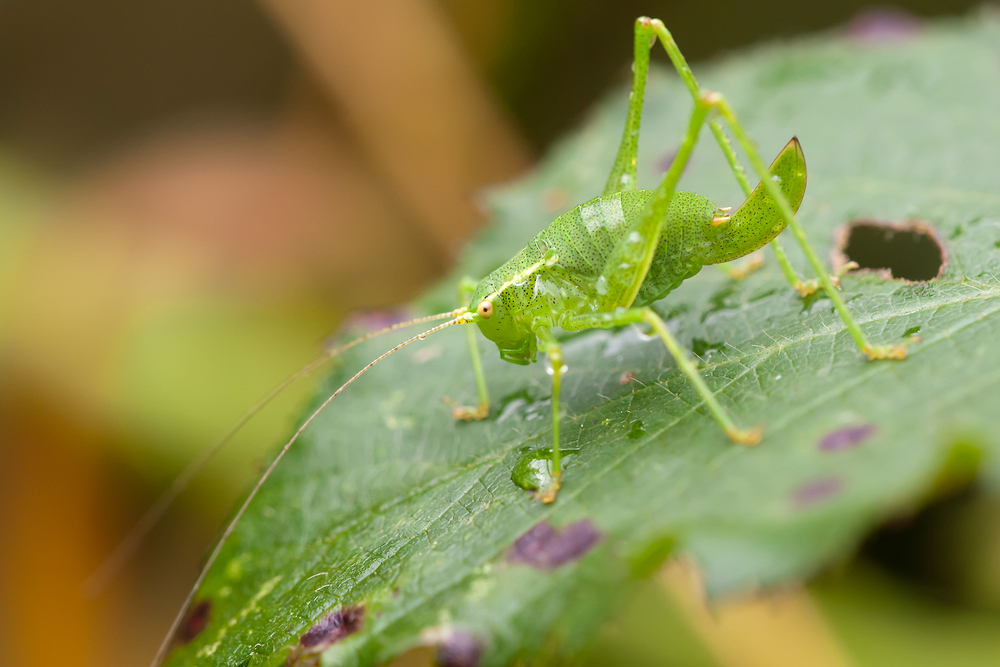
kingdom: Animalia
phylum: Arthropoda
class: Insecta
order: Orthoptera
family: Tettigoniidae
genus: Leptophyes
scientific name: Leptophyes punctatissima
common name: Speckled bush-cricket
